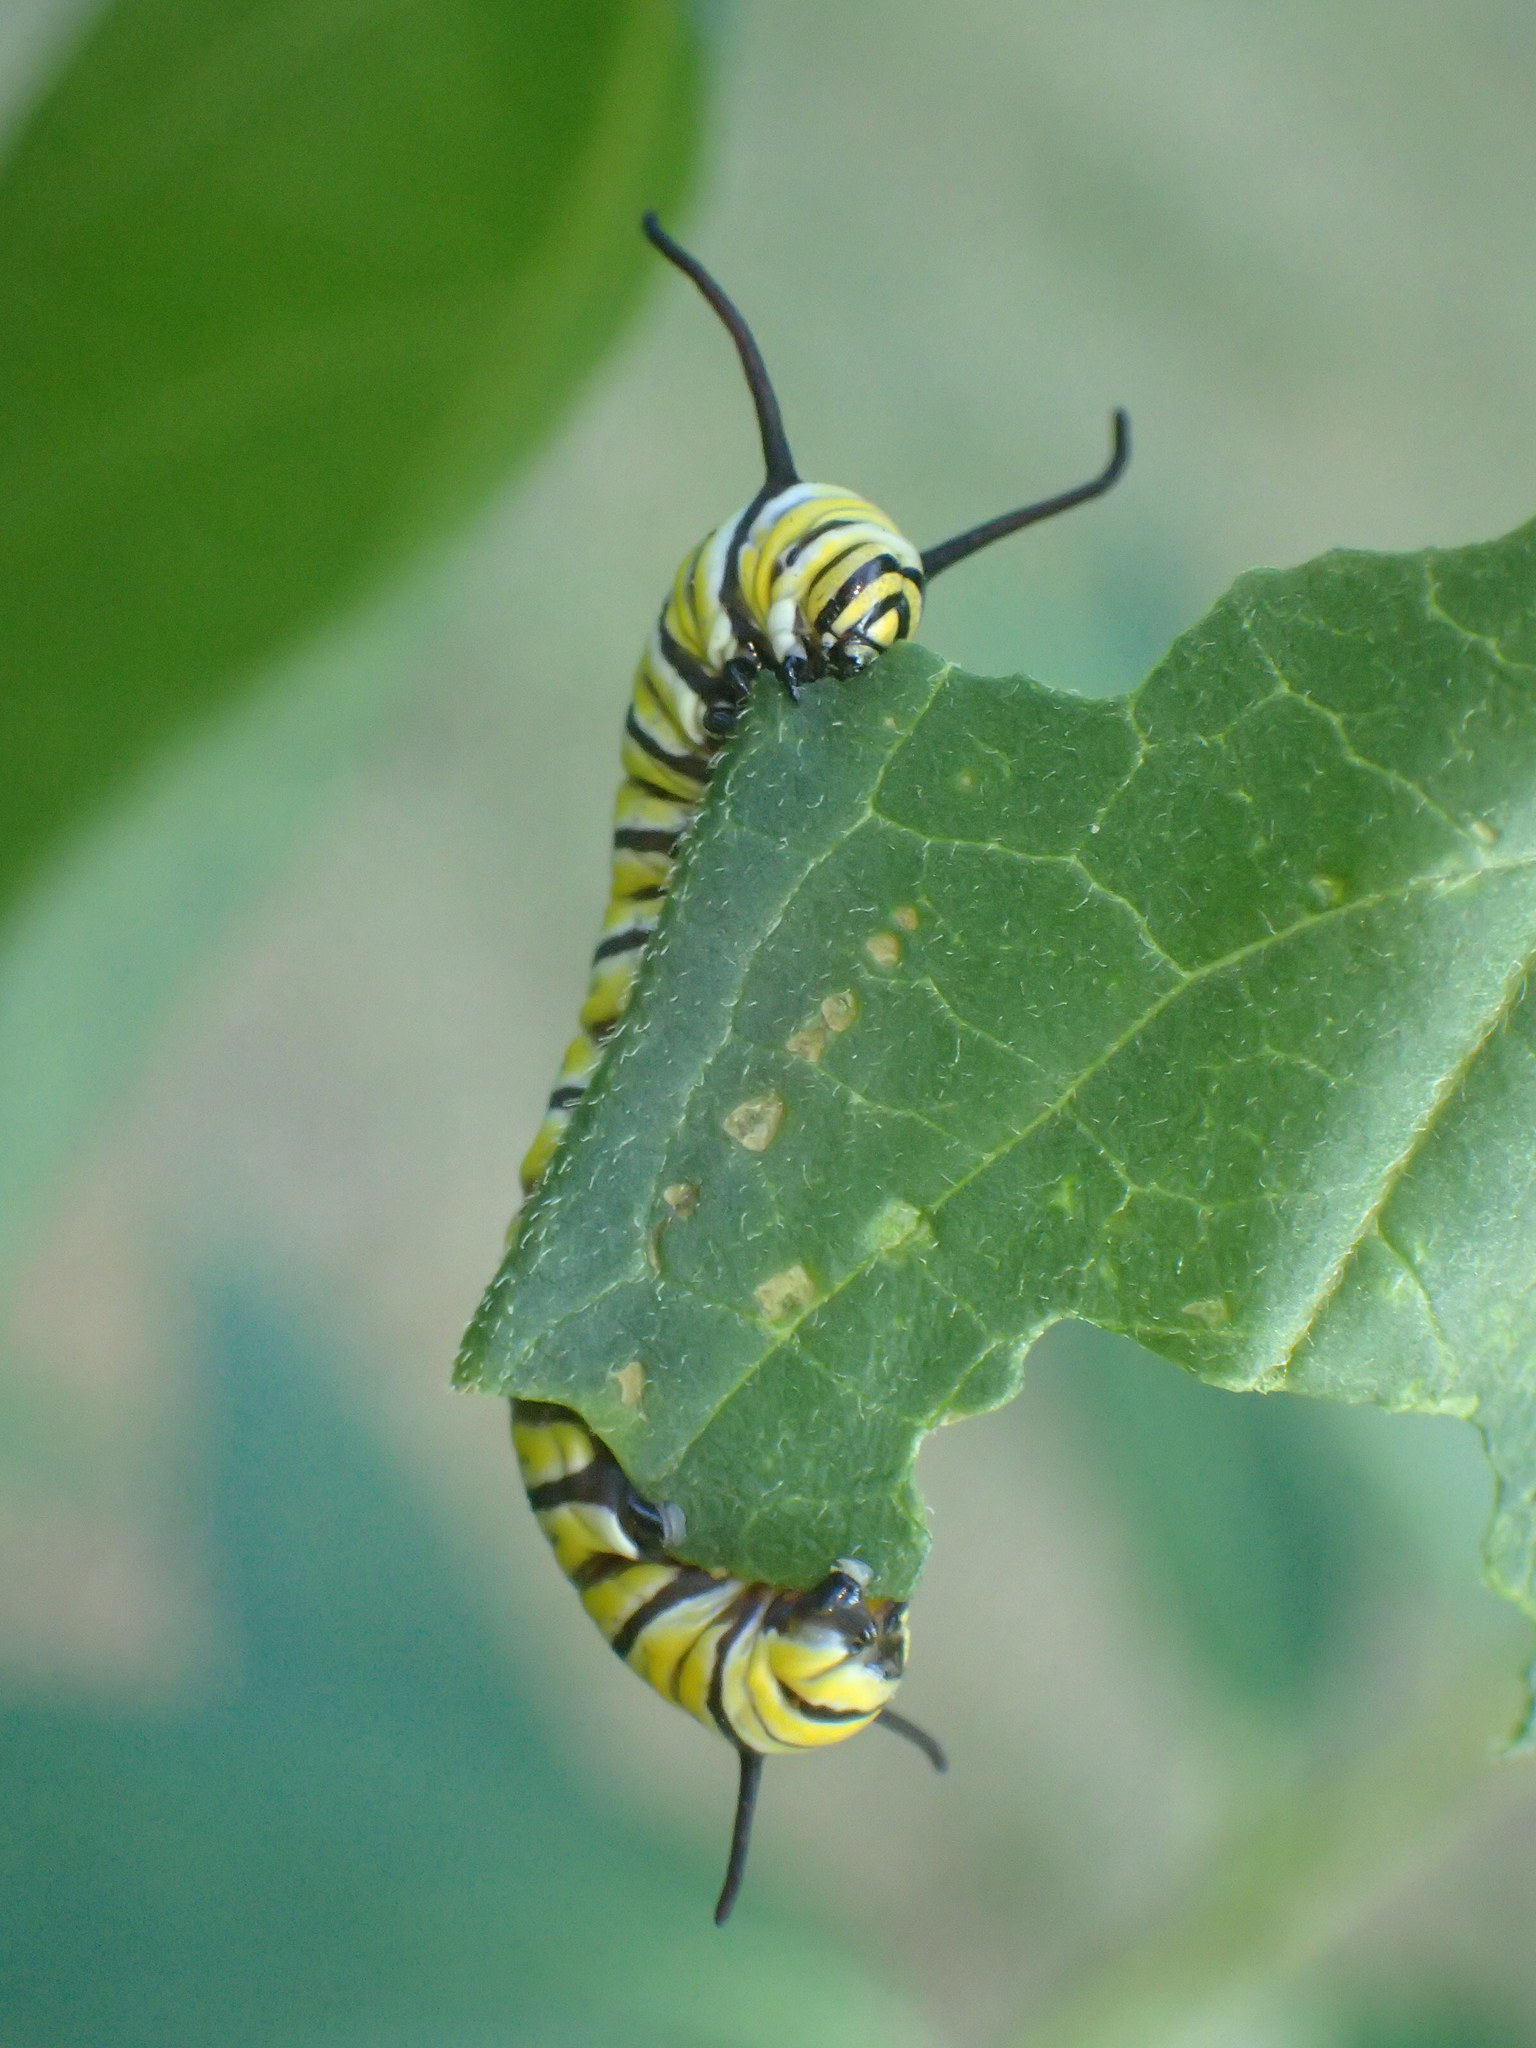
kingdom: Animalia
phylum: Arthropoda
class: Insecta
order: Lepidoptera
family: Nymphalidae
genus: Danaus
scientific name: Danaus plexippus
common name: Monarch
